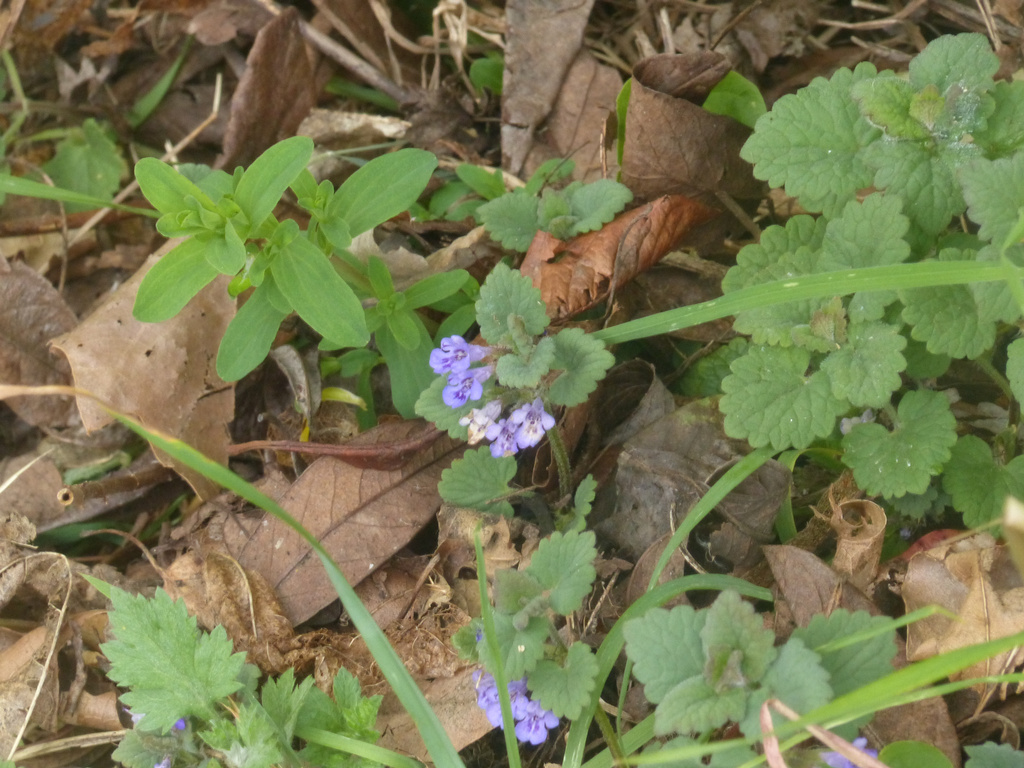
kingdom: Plantae
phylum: Tracheophyta
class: Magnoliopsida
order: Lamiales
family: Lamiaceae
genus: Glechoma
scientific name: Glechoma hederacea
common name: Ground ivy
